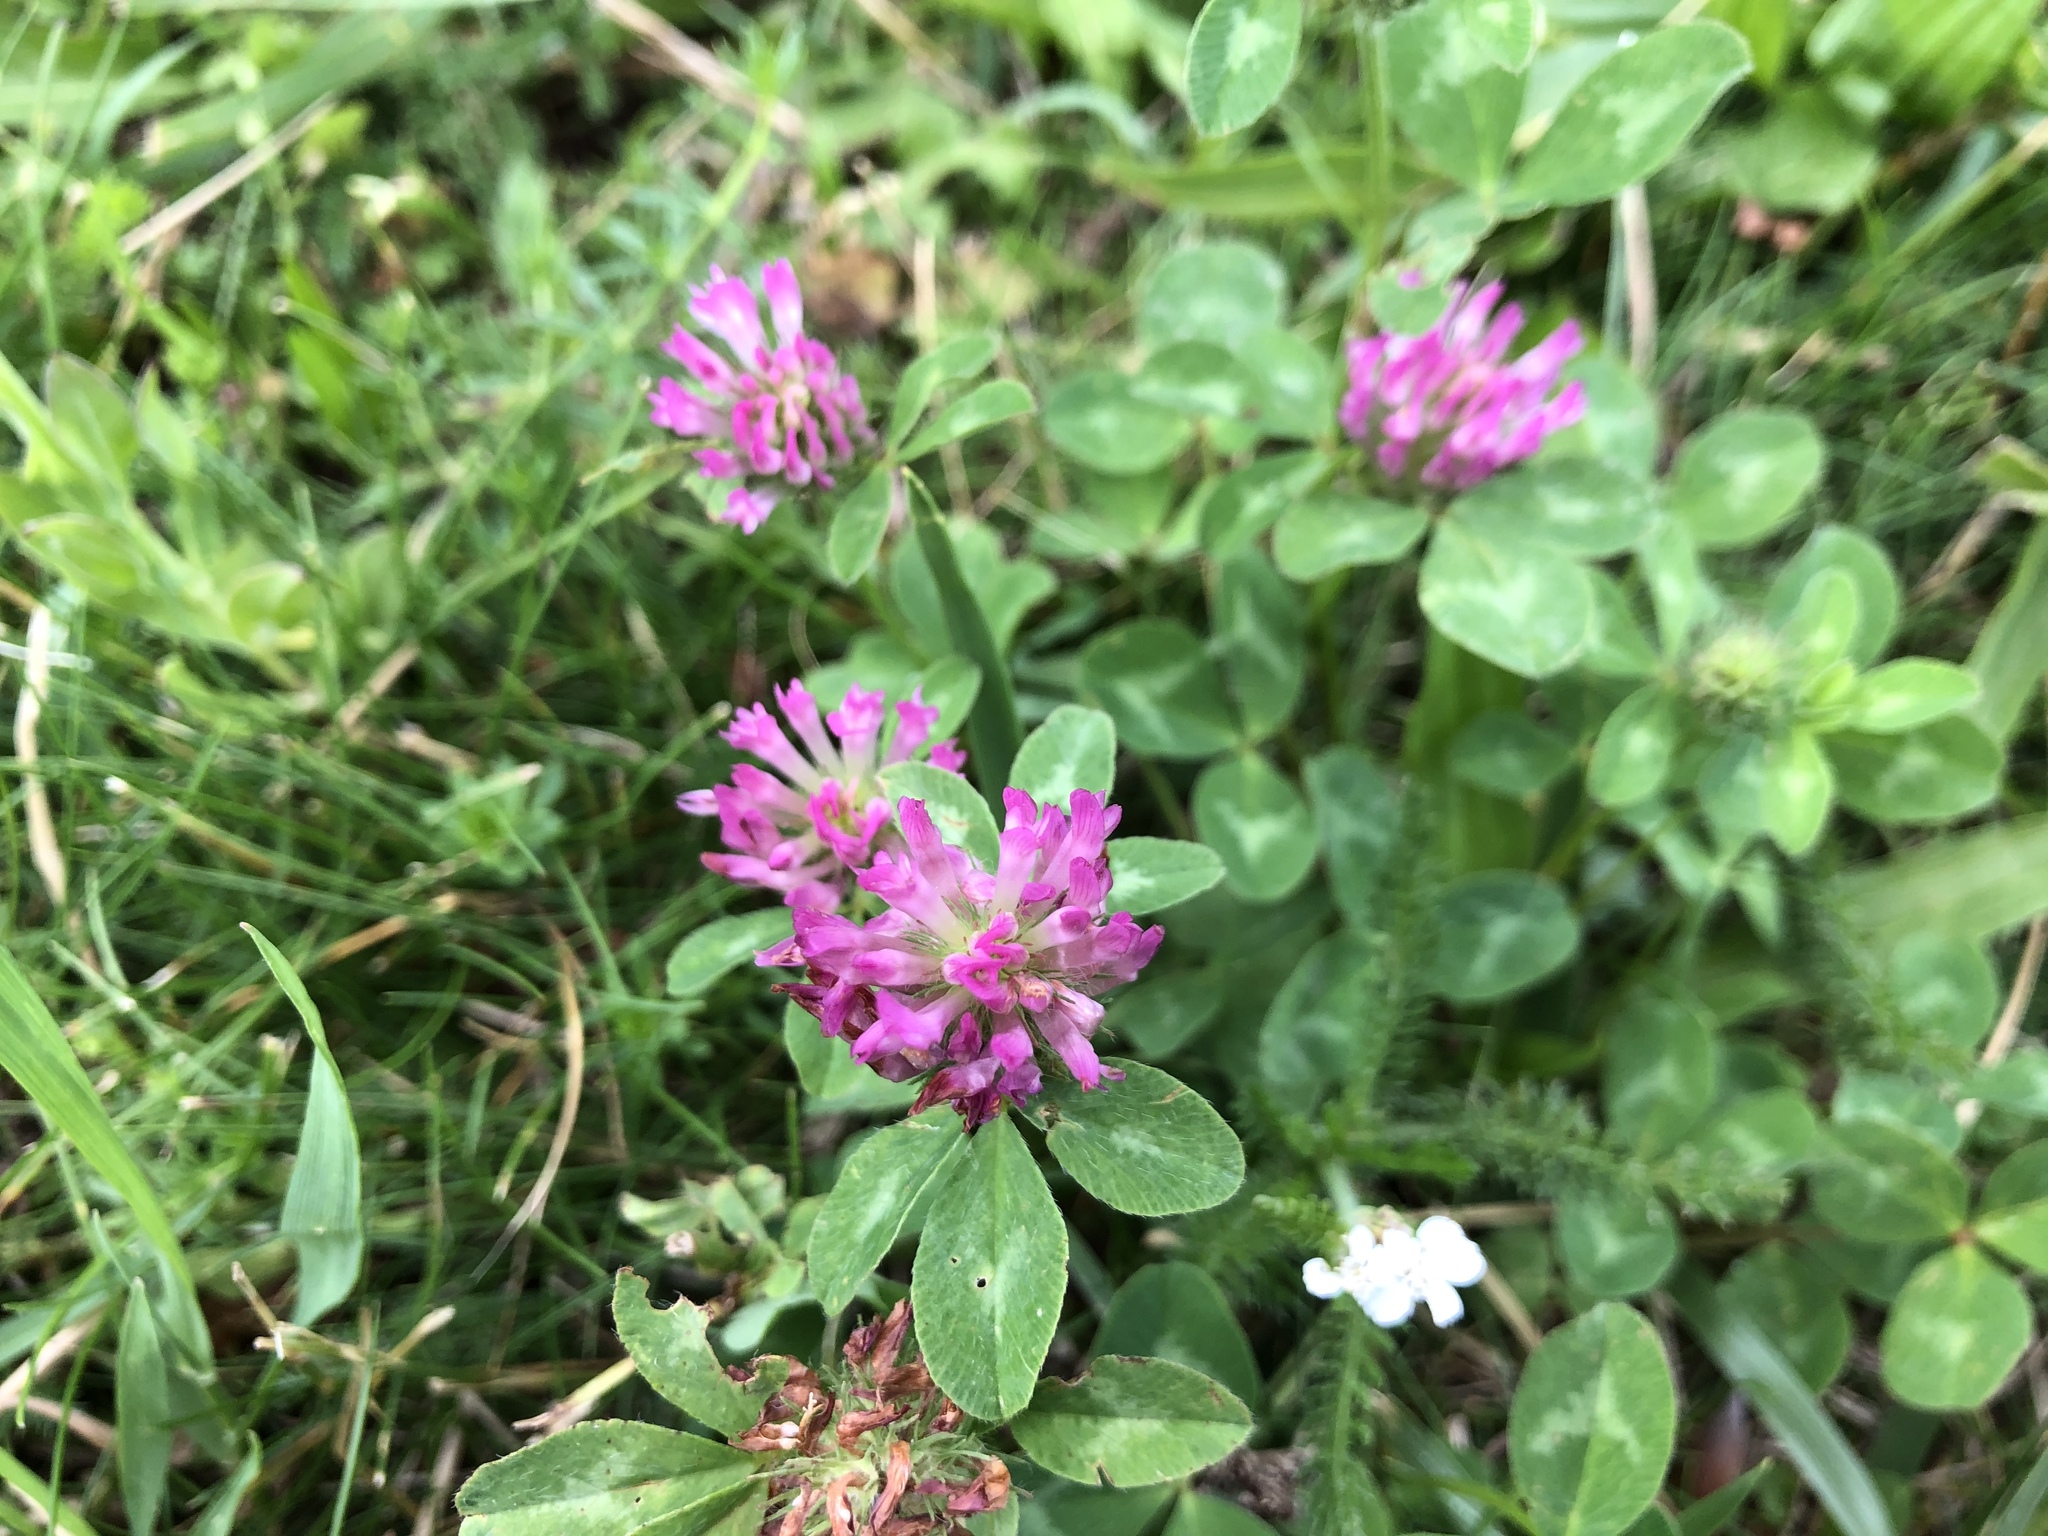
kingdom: Plantae
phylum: Tracheophyta
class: Magnoliopsida
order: Fabales
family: Fabaceae
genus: Trifolium
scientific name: Trifolium pratense
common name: Red clover
